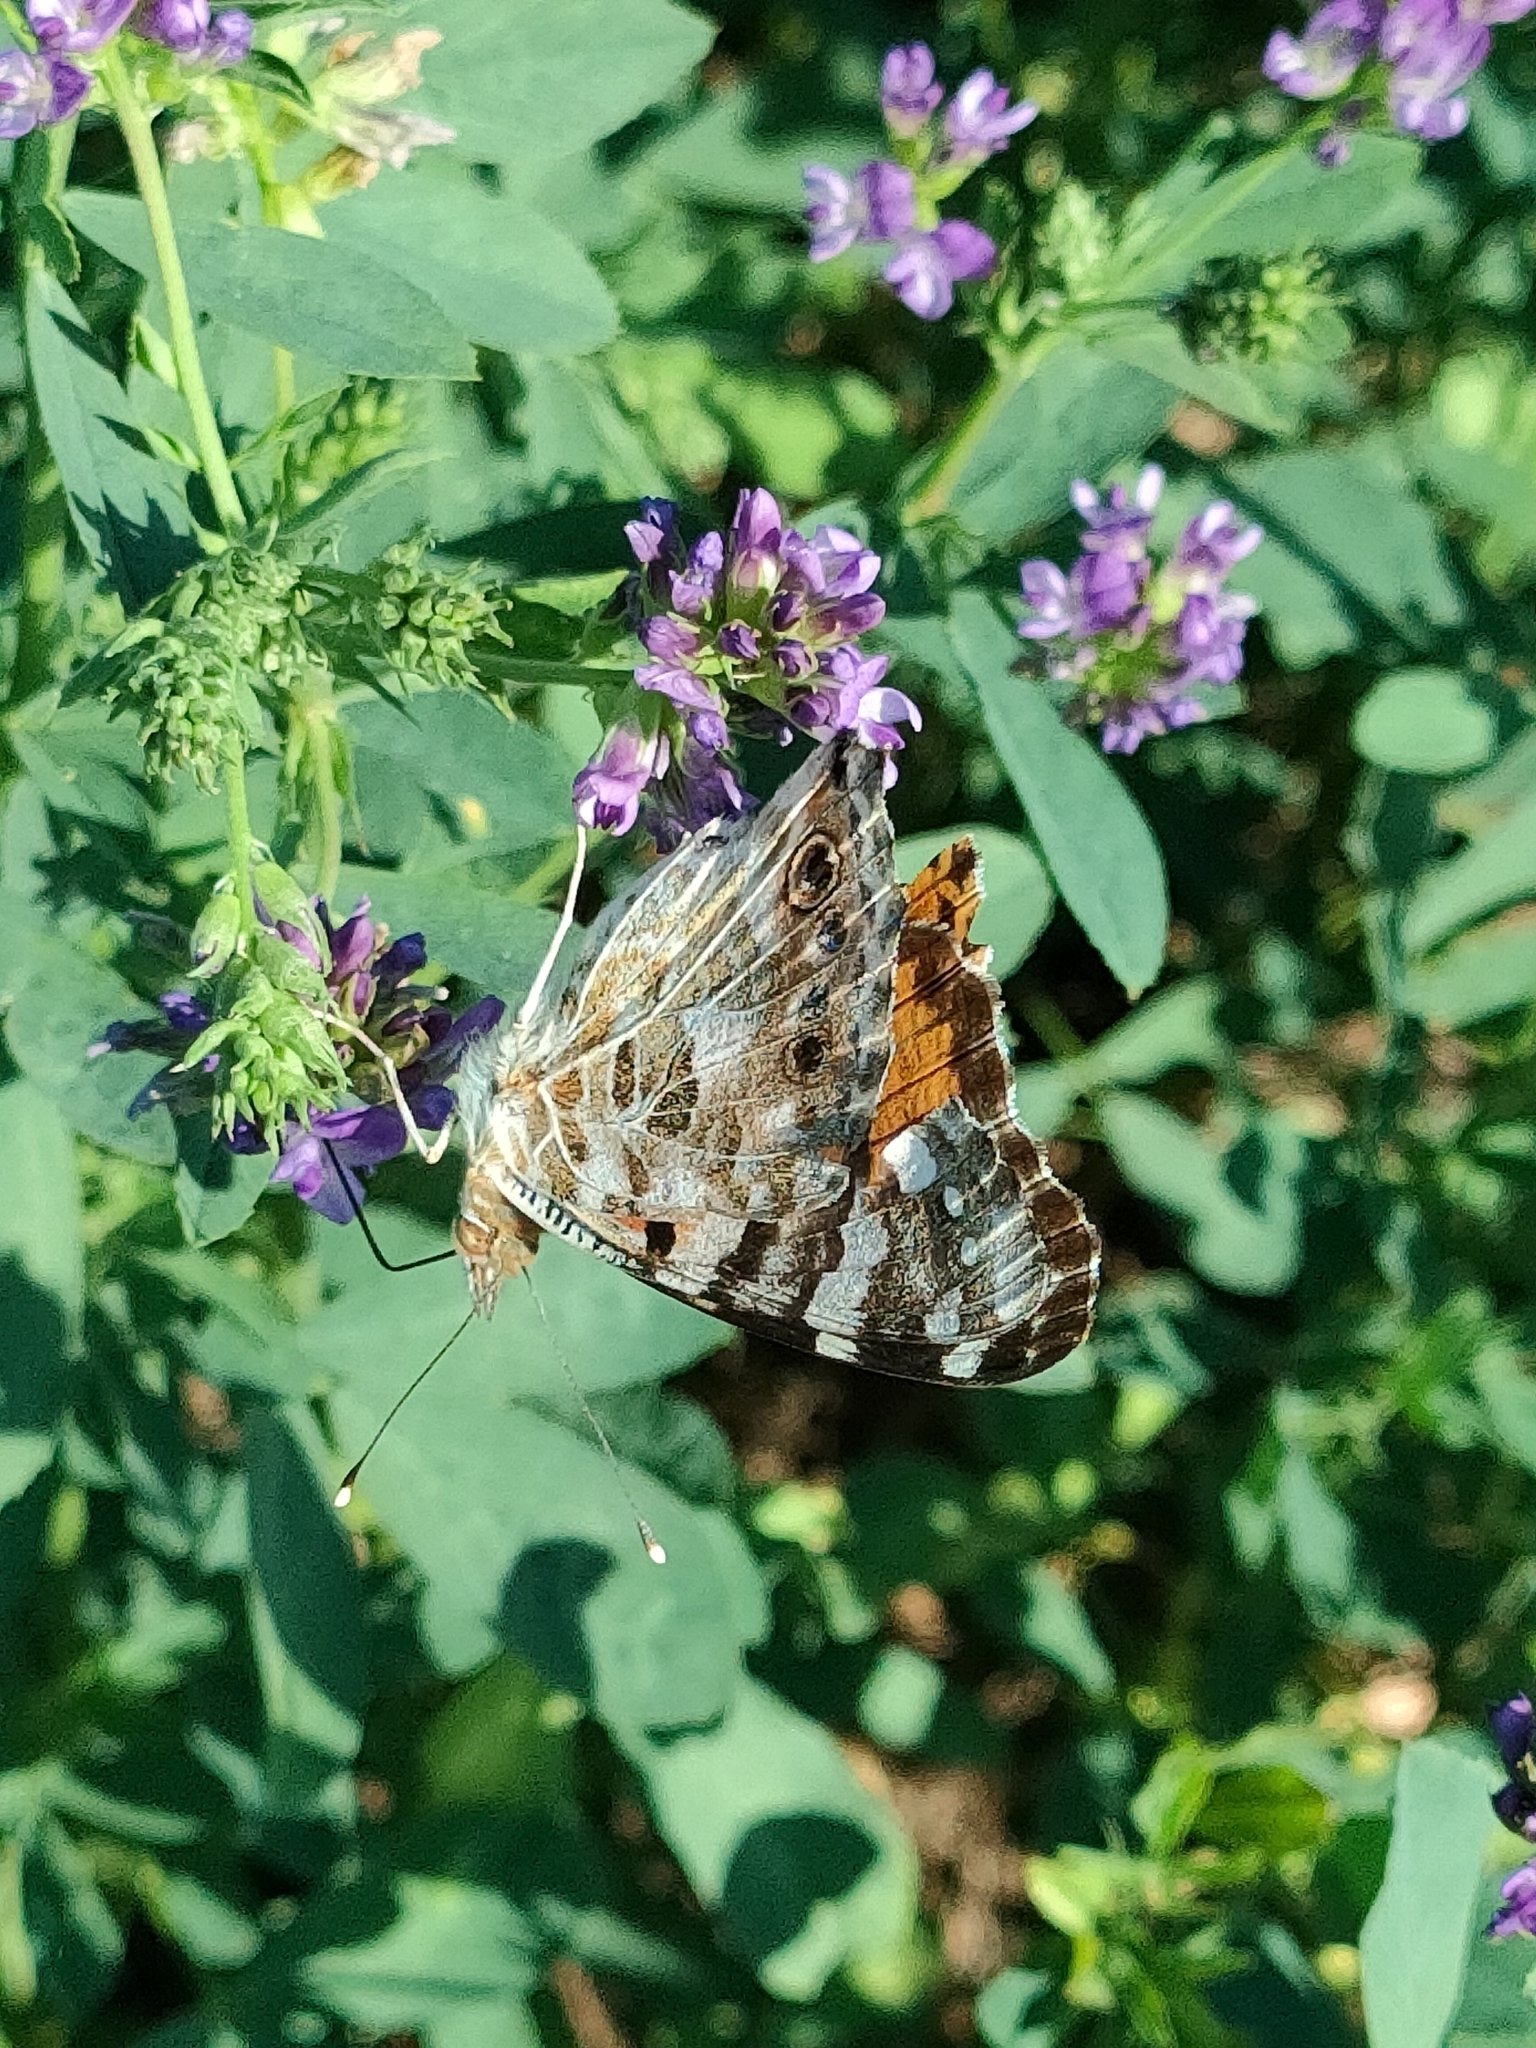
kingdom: Animalia
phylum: Arthropoda
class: Insecta
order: Lepidoptera
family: Nymphalidae
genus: Vanessa
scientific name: Vanessa cardui
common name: Painted lady
